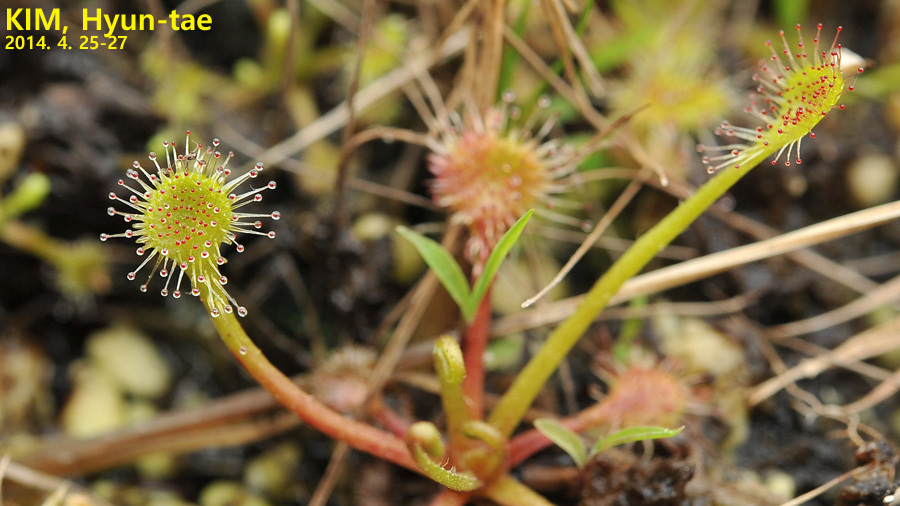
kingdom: Plantae
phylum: Tracheophyta
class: Magnoliopsida
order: Caryophyllales
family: Droseraceae
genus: Drosera
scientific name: Drosera rotundifolia
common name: Round-leaved sundew
